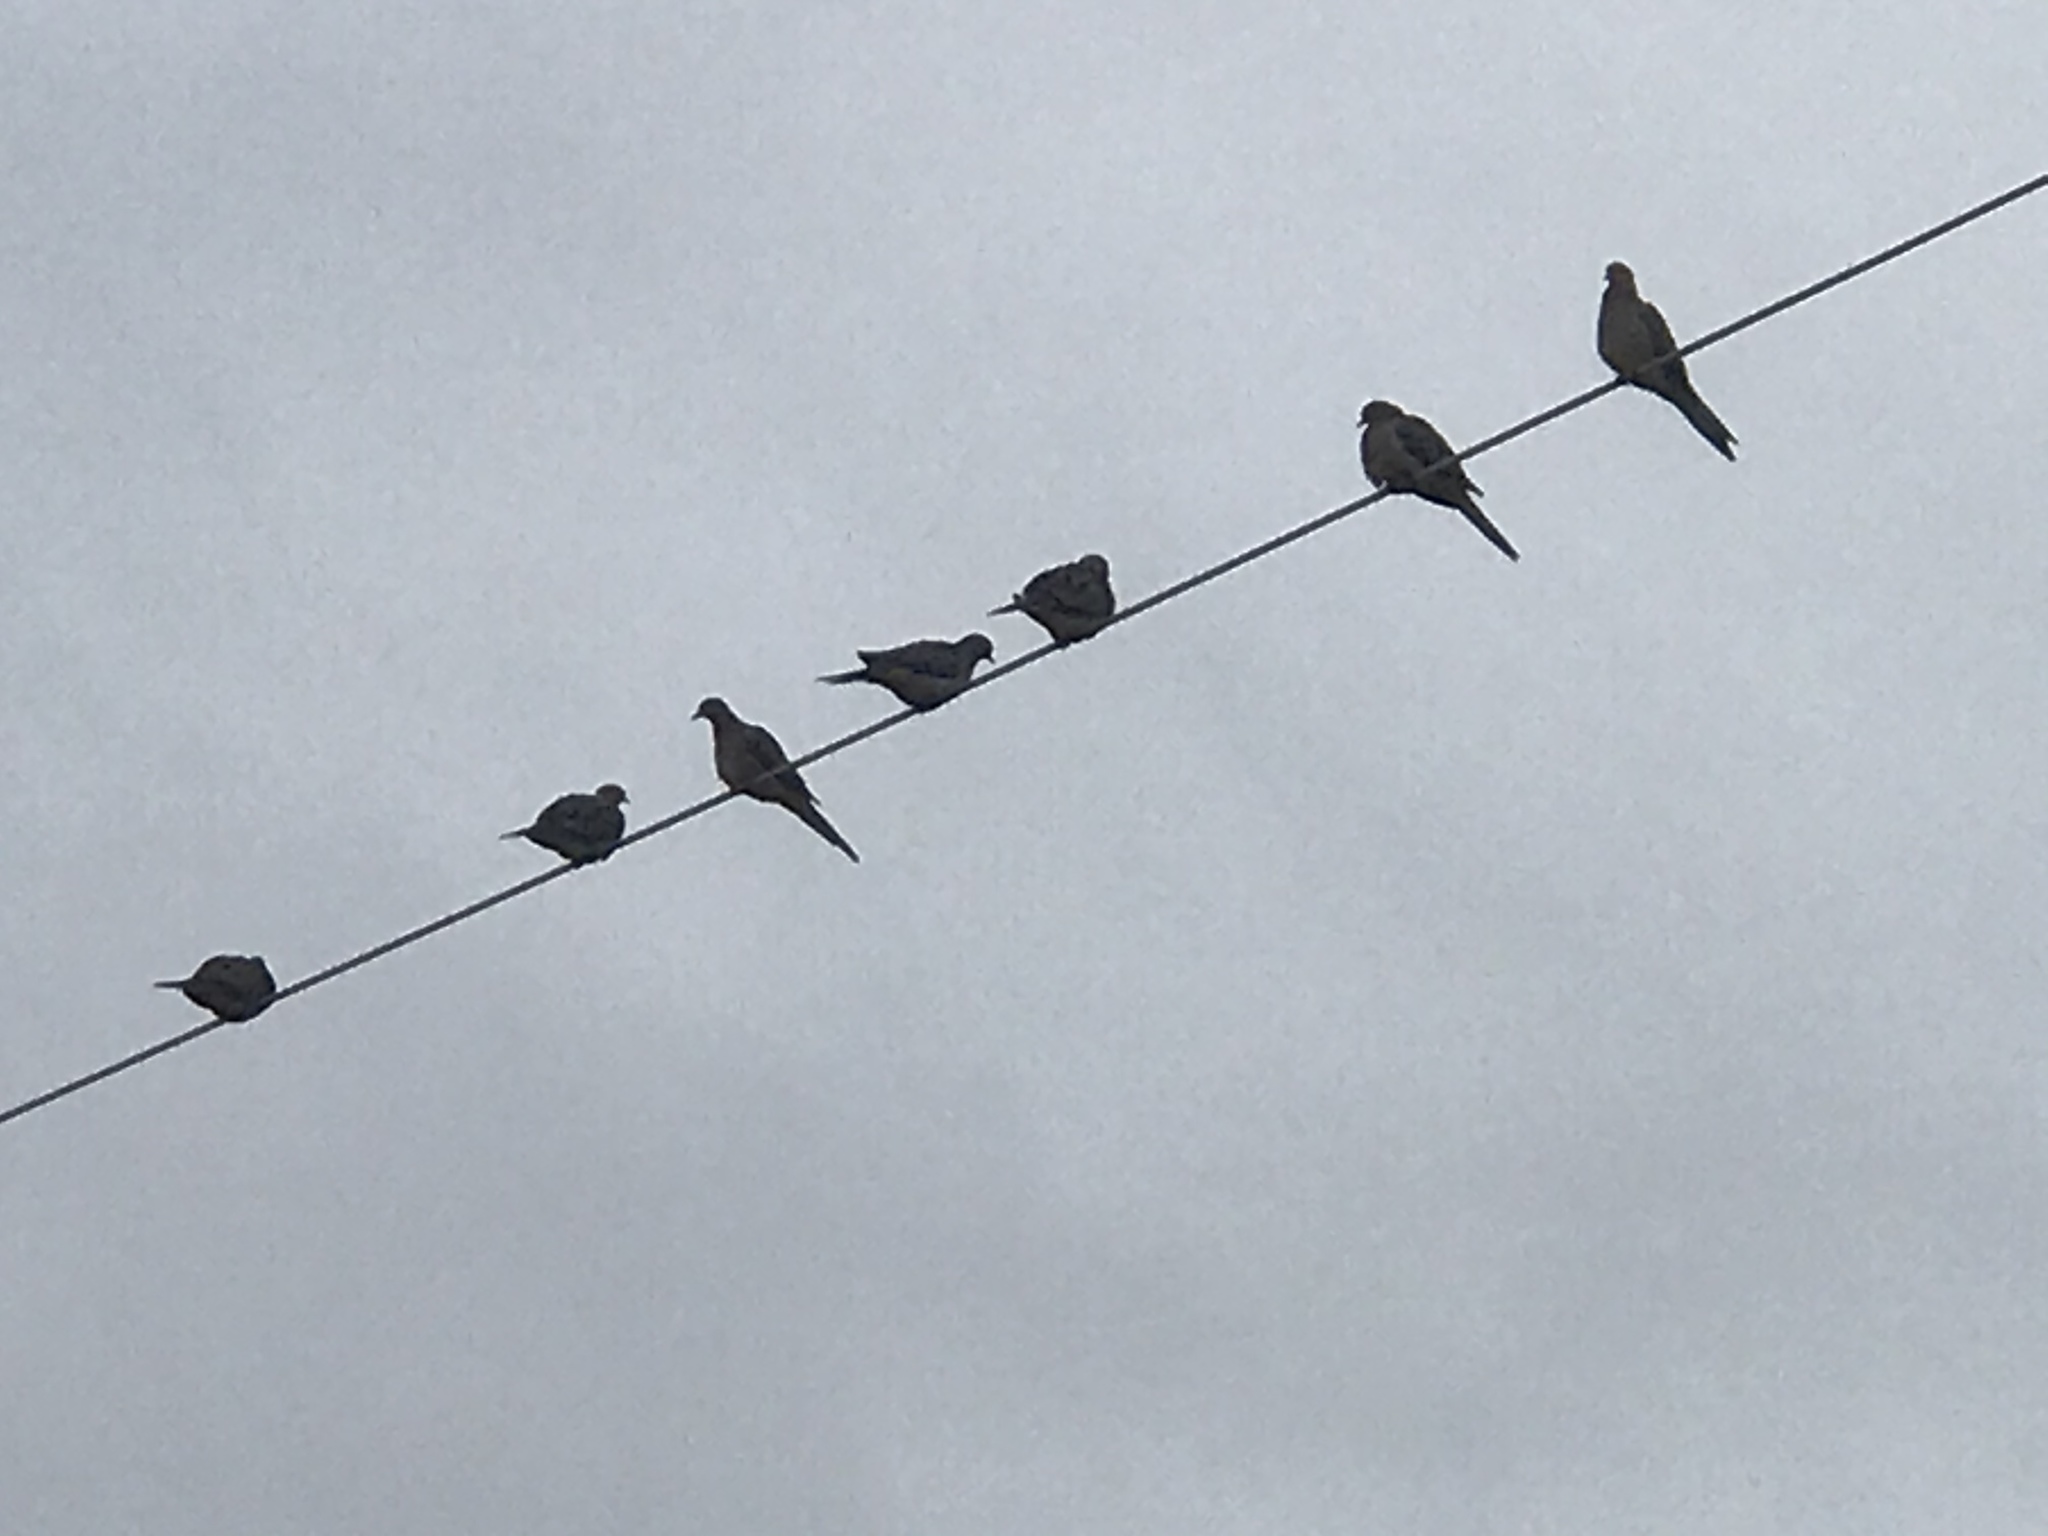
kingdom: Animalia
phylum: Chordata
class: Aves
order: Columbiformes
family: Columbidae
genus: Zenaida
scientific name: Zenaida macroura
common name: Mourning dove
